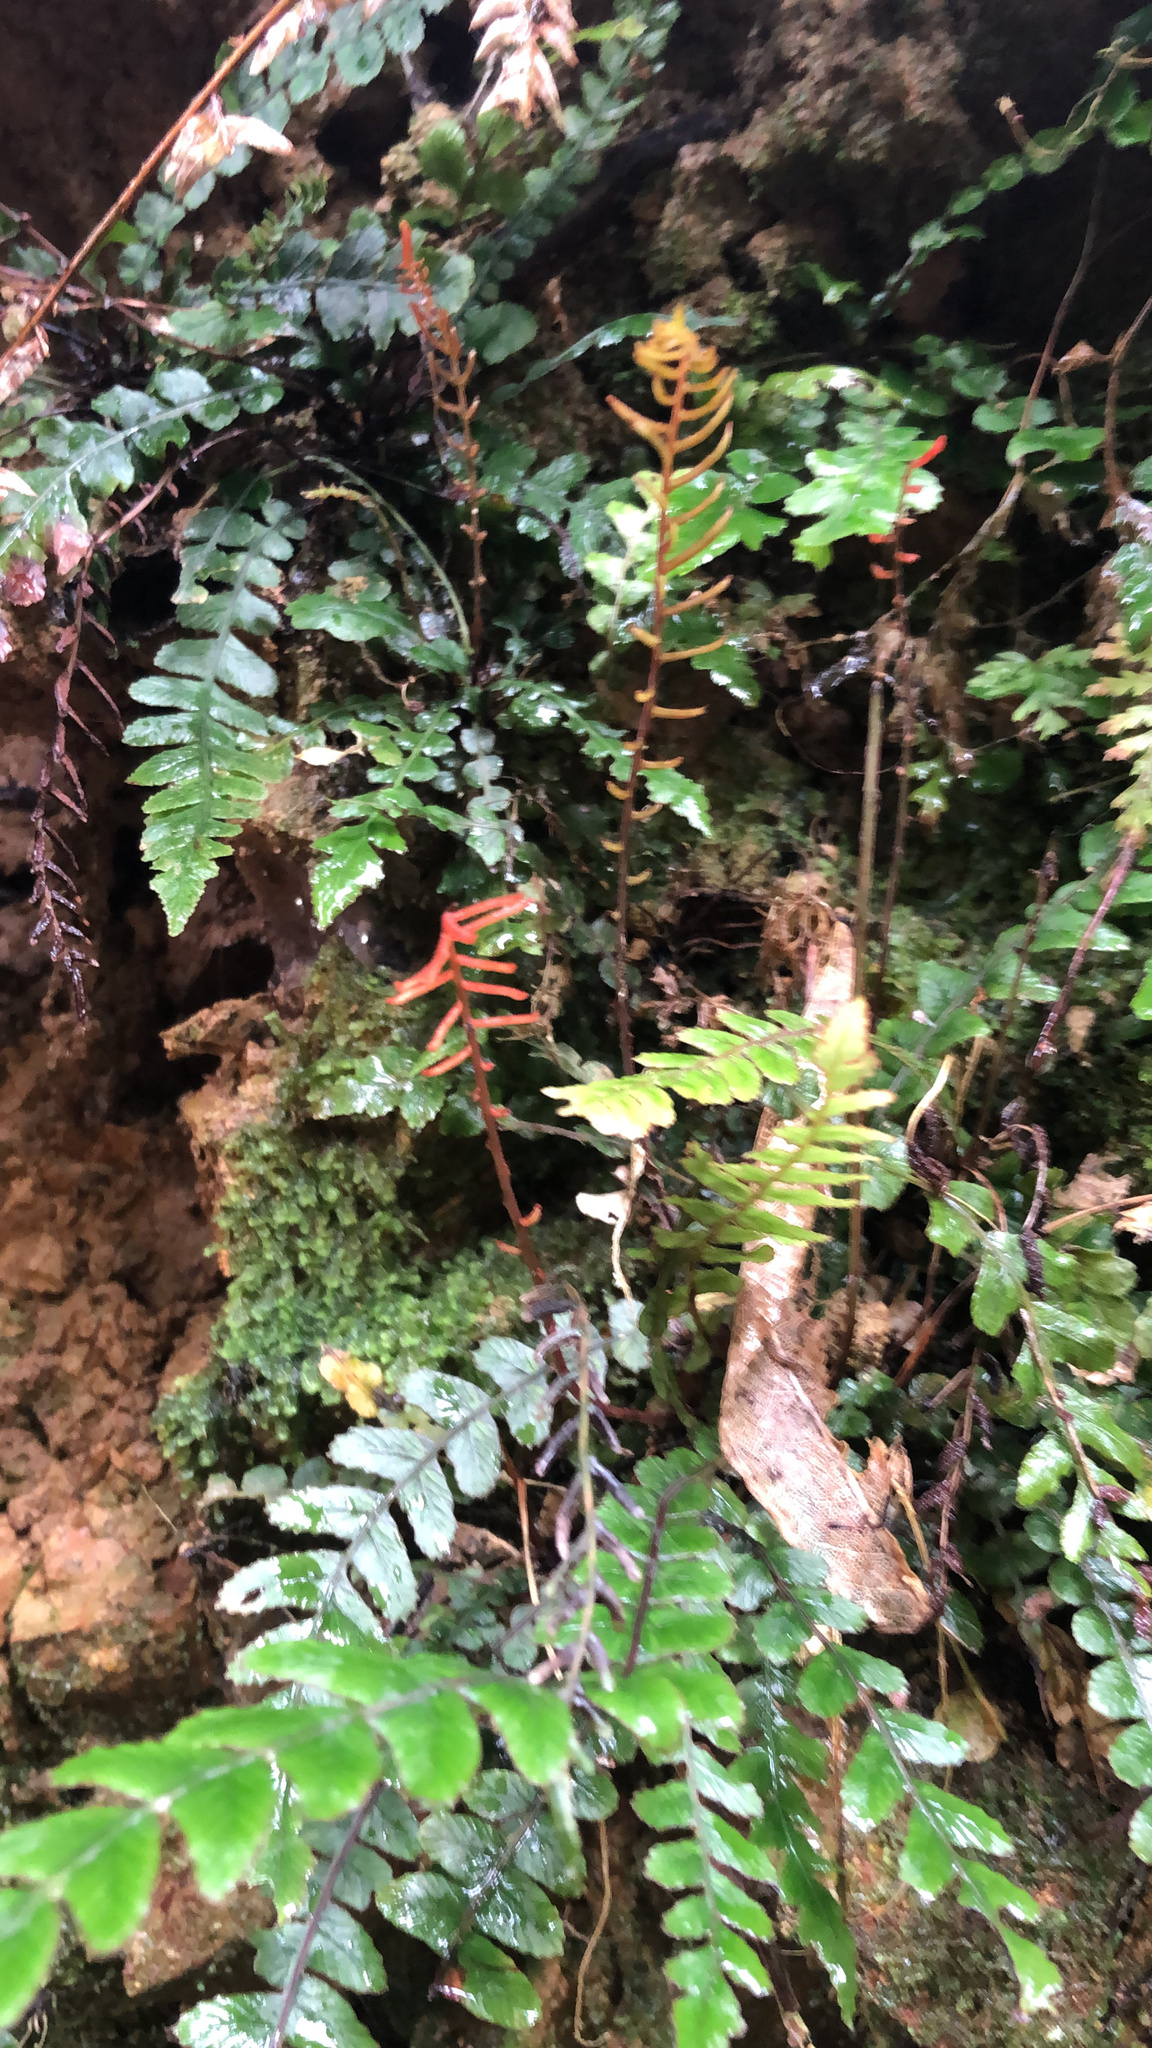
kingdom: Plantae
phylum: Tracheophyta
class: Polypodiopsida
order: Polypodiales
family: Blechnaceae
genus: Austroblechnum
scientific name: Austroblechnum membranaceum
